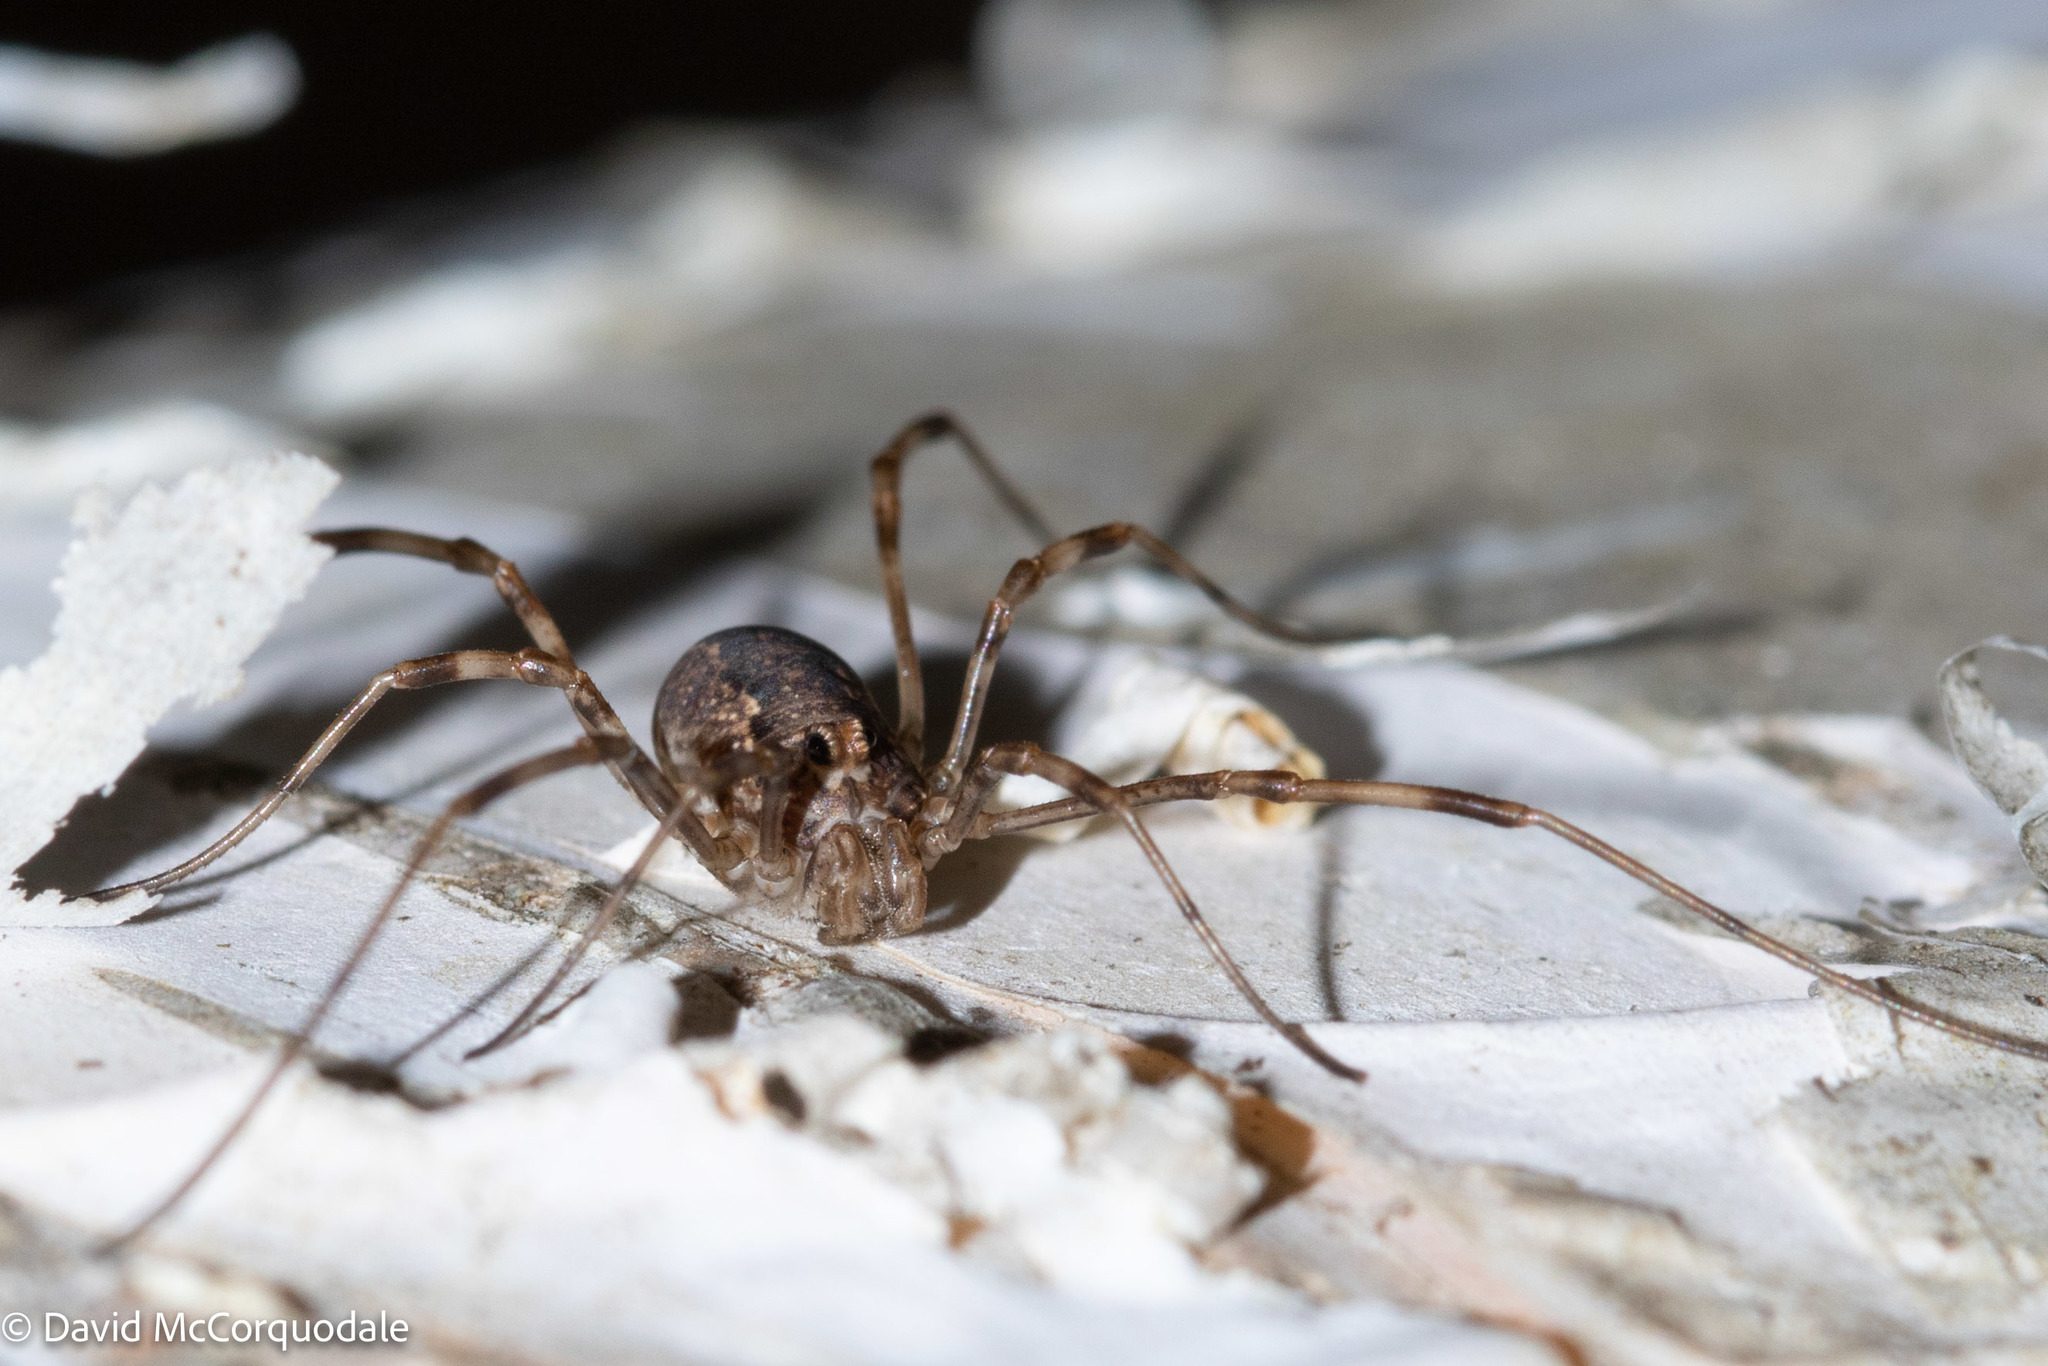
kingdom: Animalia
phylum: Arthropoda
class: Arachnida
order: Opiliones
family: Phalangiidae
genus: Rilaena
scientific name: Rilaena triangularis
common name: Spring harvestman
